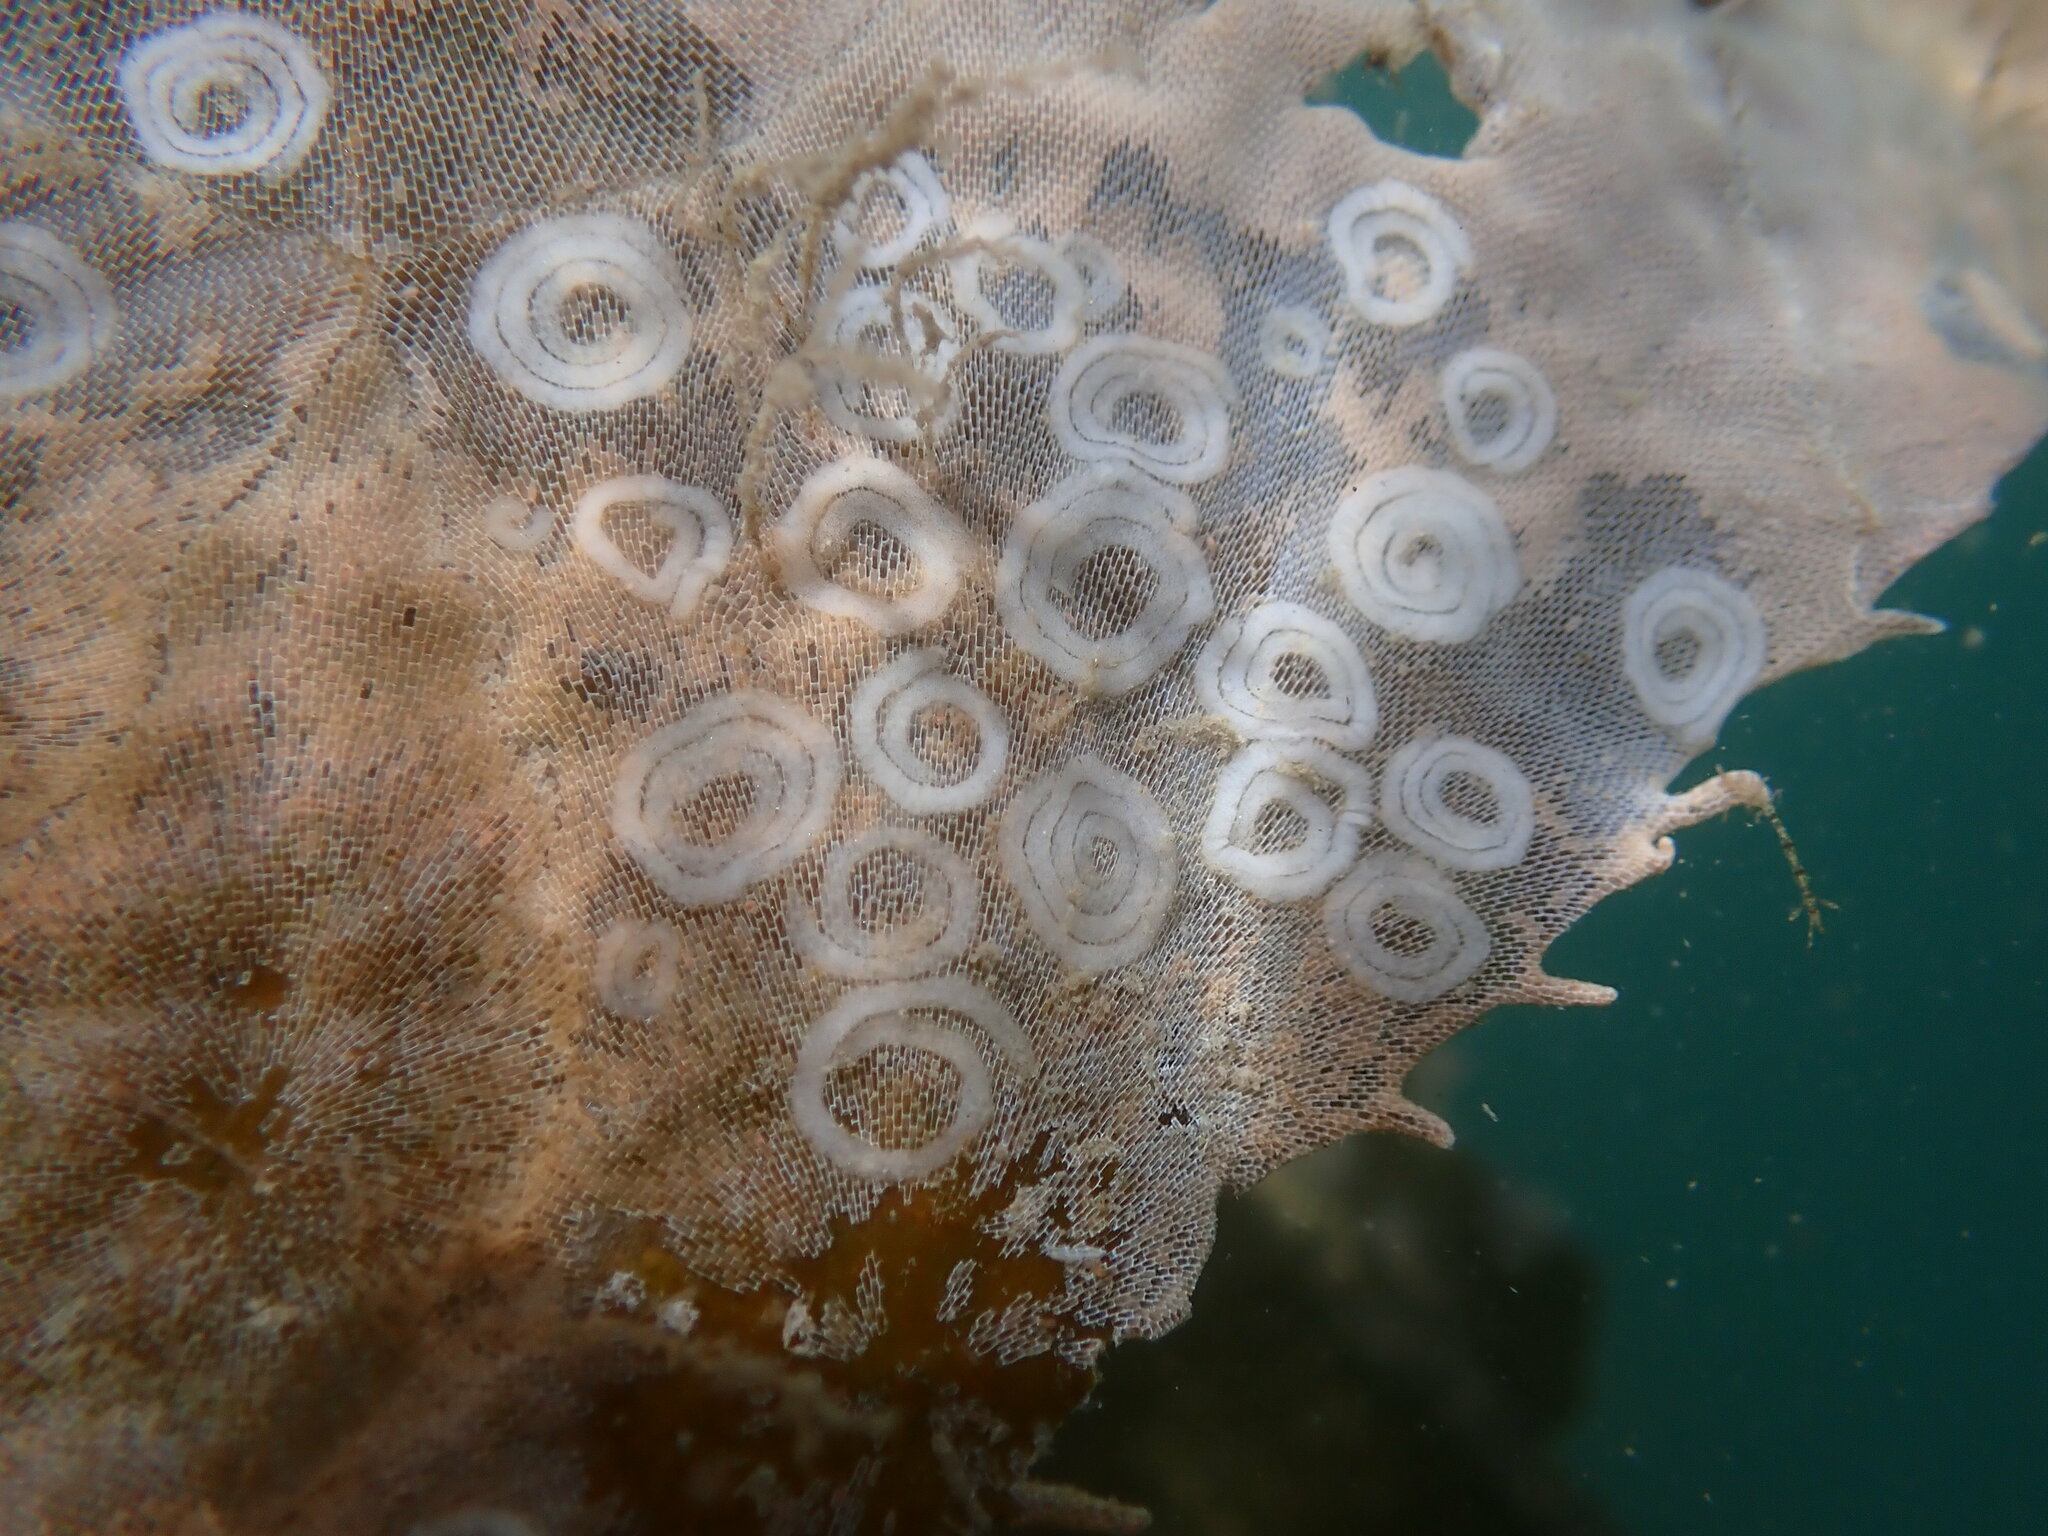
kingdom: Animalia
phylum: Mollusca
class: Gastropoda
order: Nudibranchia
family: Corambidae
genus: Corambe
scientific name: Corambe pacifica
